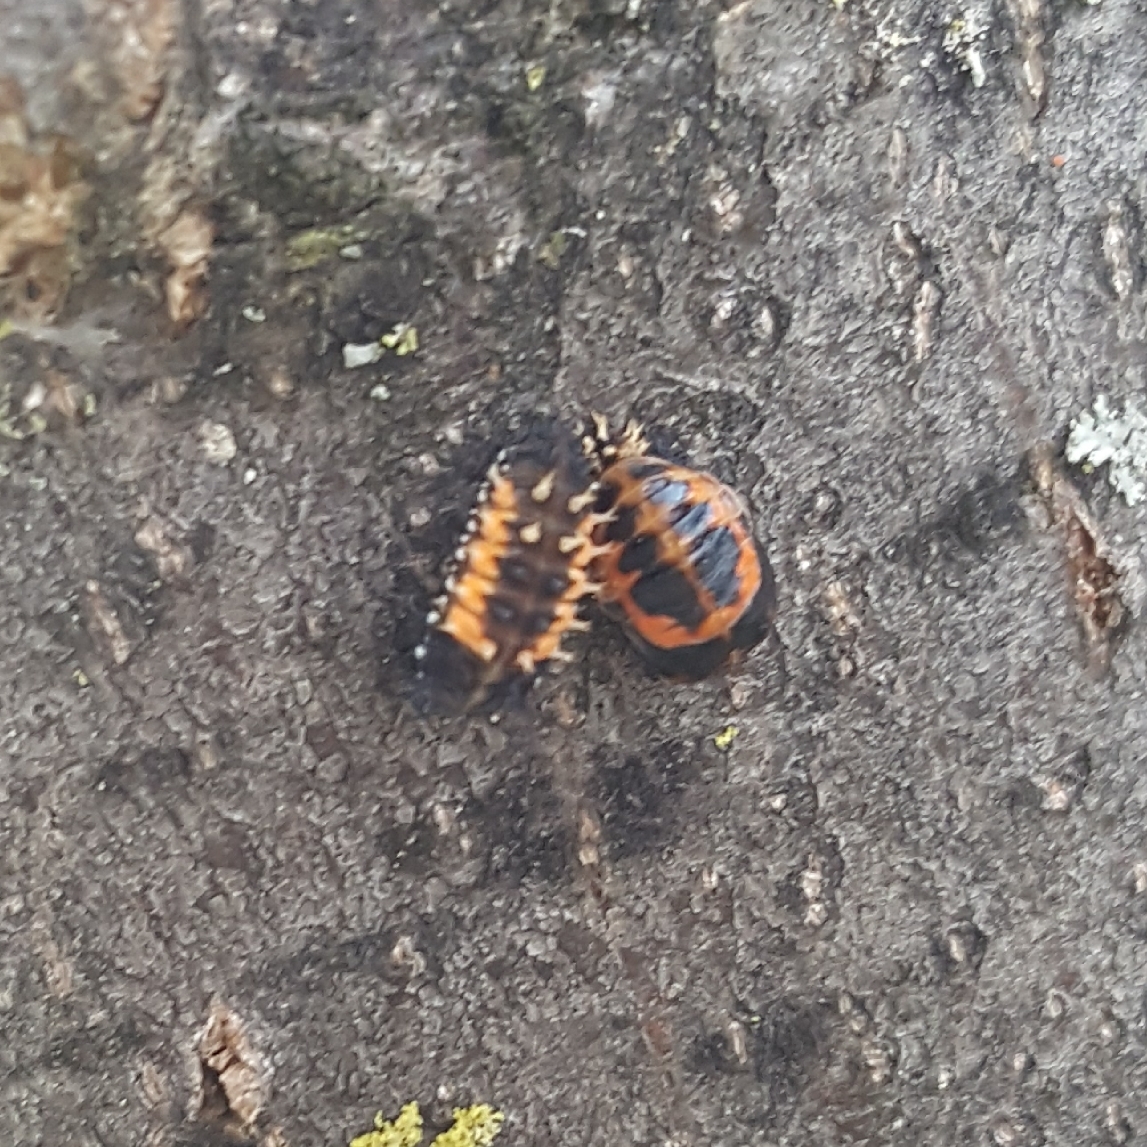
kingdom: Animalia
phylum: Arthropoda
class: Insecta
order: Coleoptera
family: Coccinellidae
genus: Harmonia
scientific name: Harmonia axyridis
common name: Harlequin ladybird
